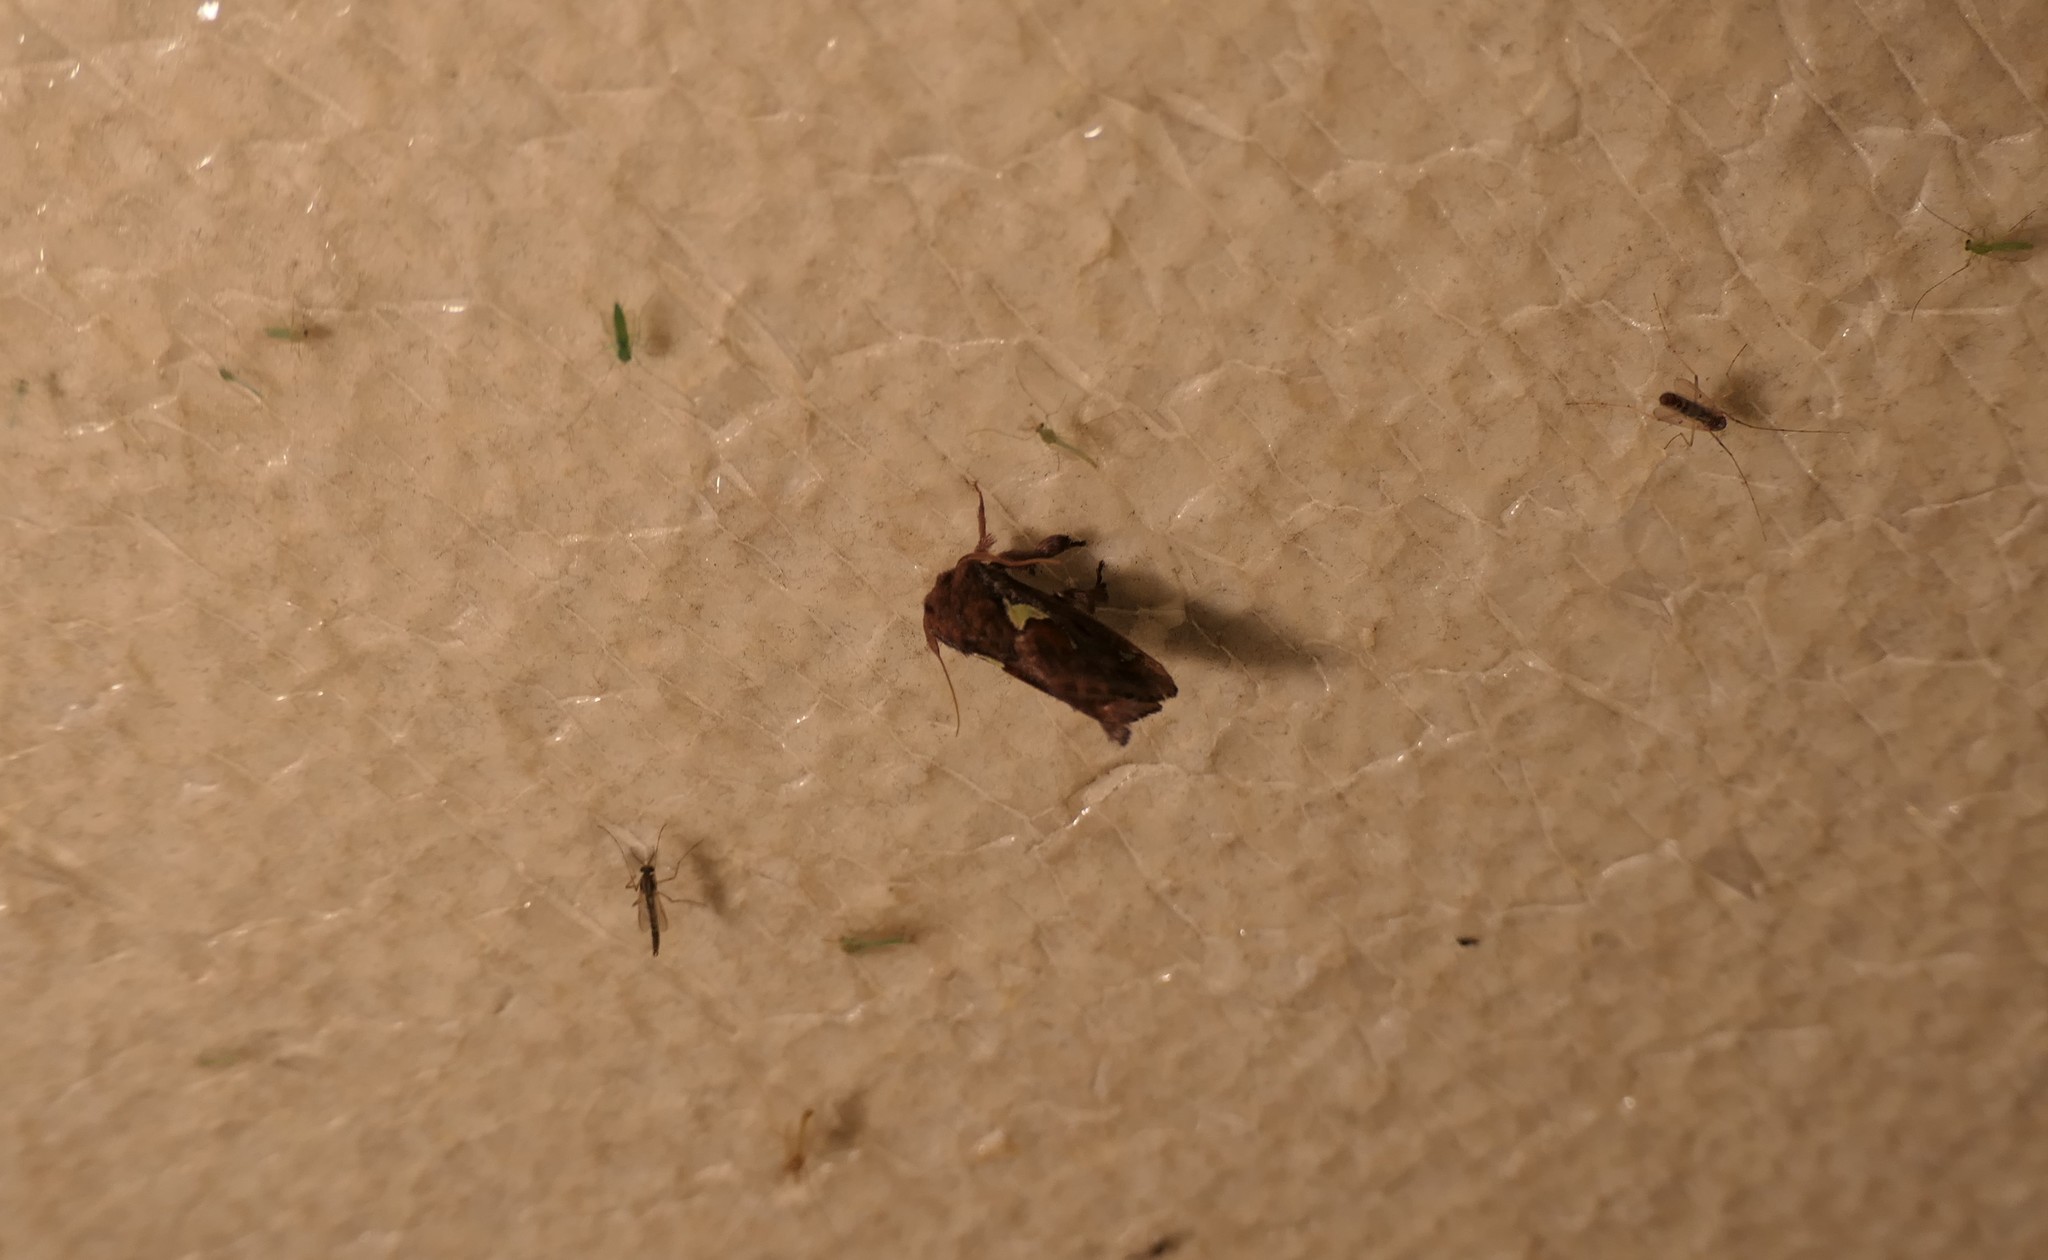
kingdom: Animalia
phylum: Arthropoda
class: Insecta
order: Lepidoptera
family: Limacodidae
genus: Euclea
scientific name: Euclea delphinii
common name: Spiny oak-slug moth
